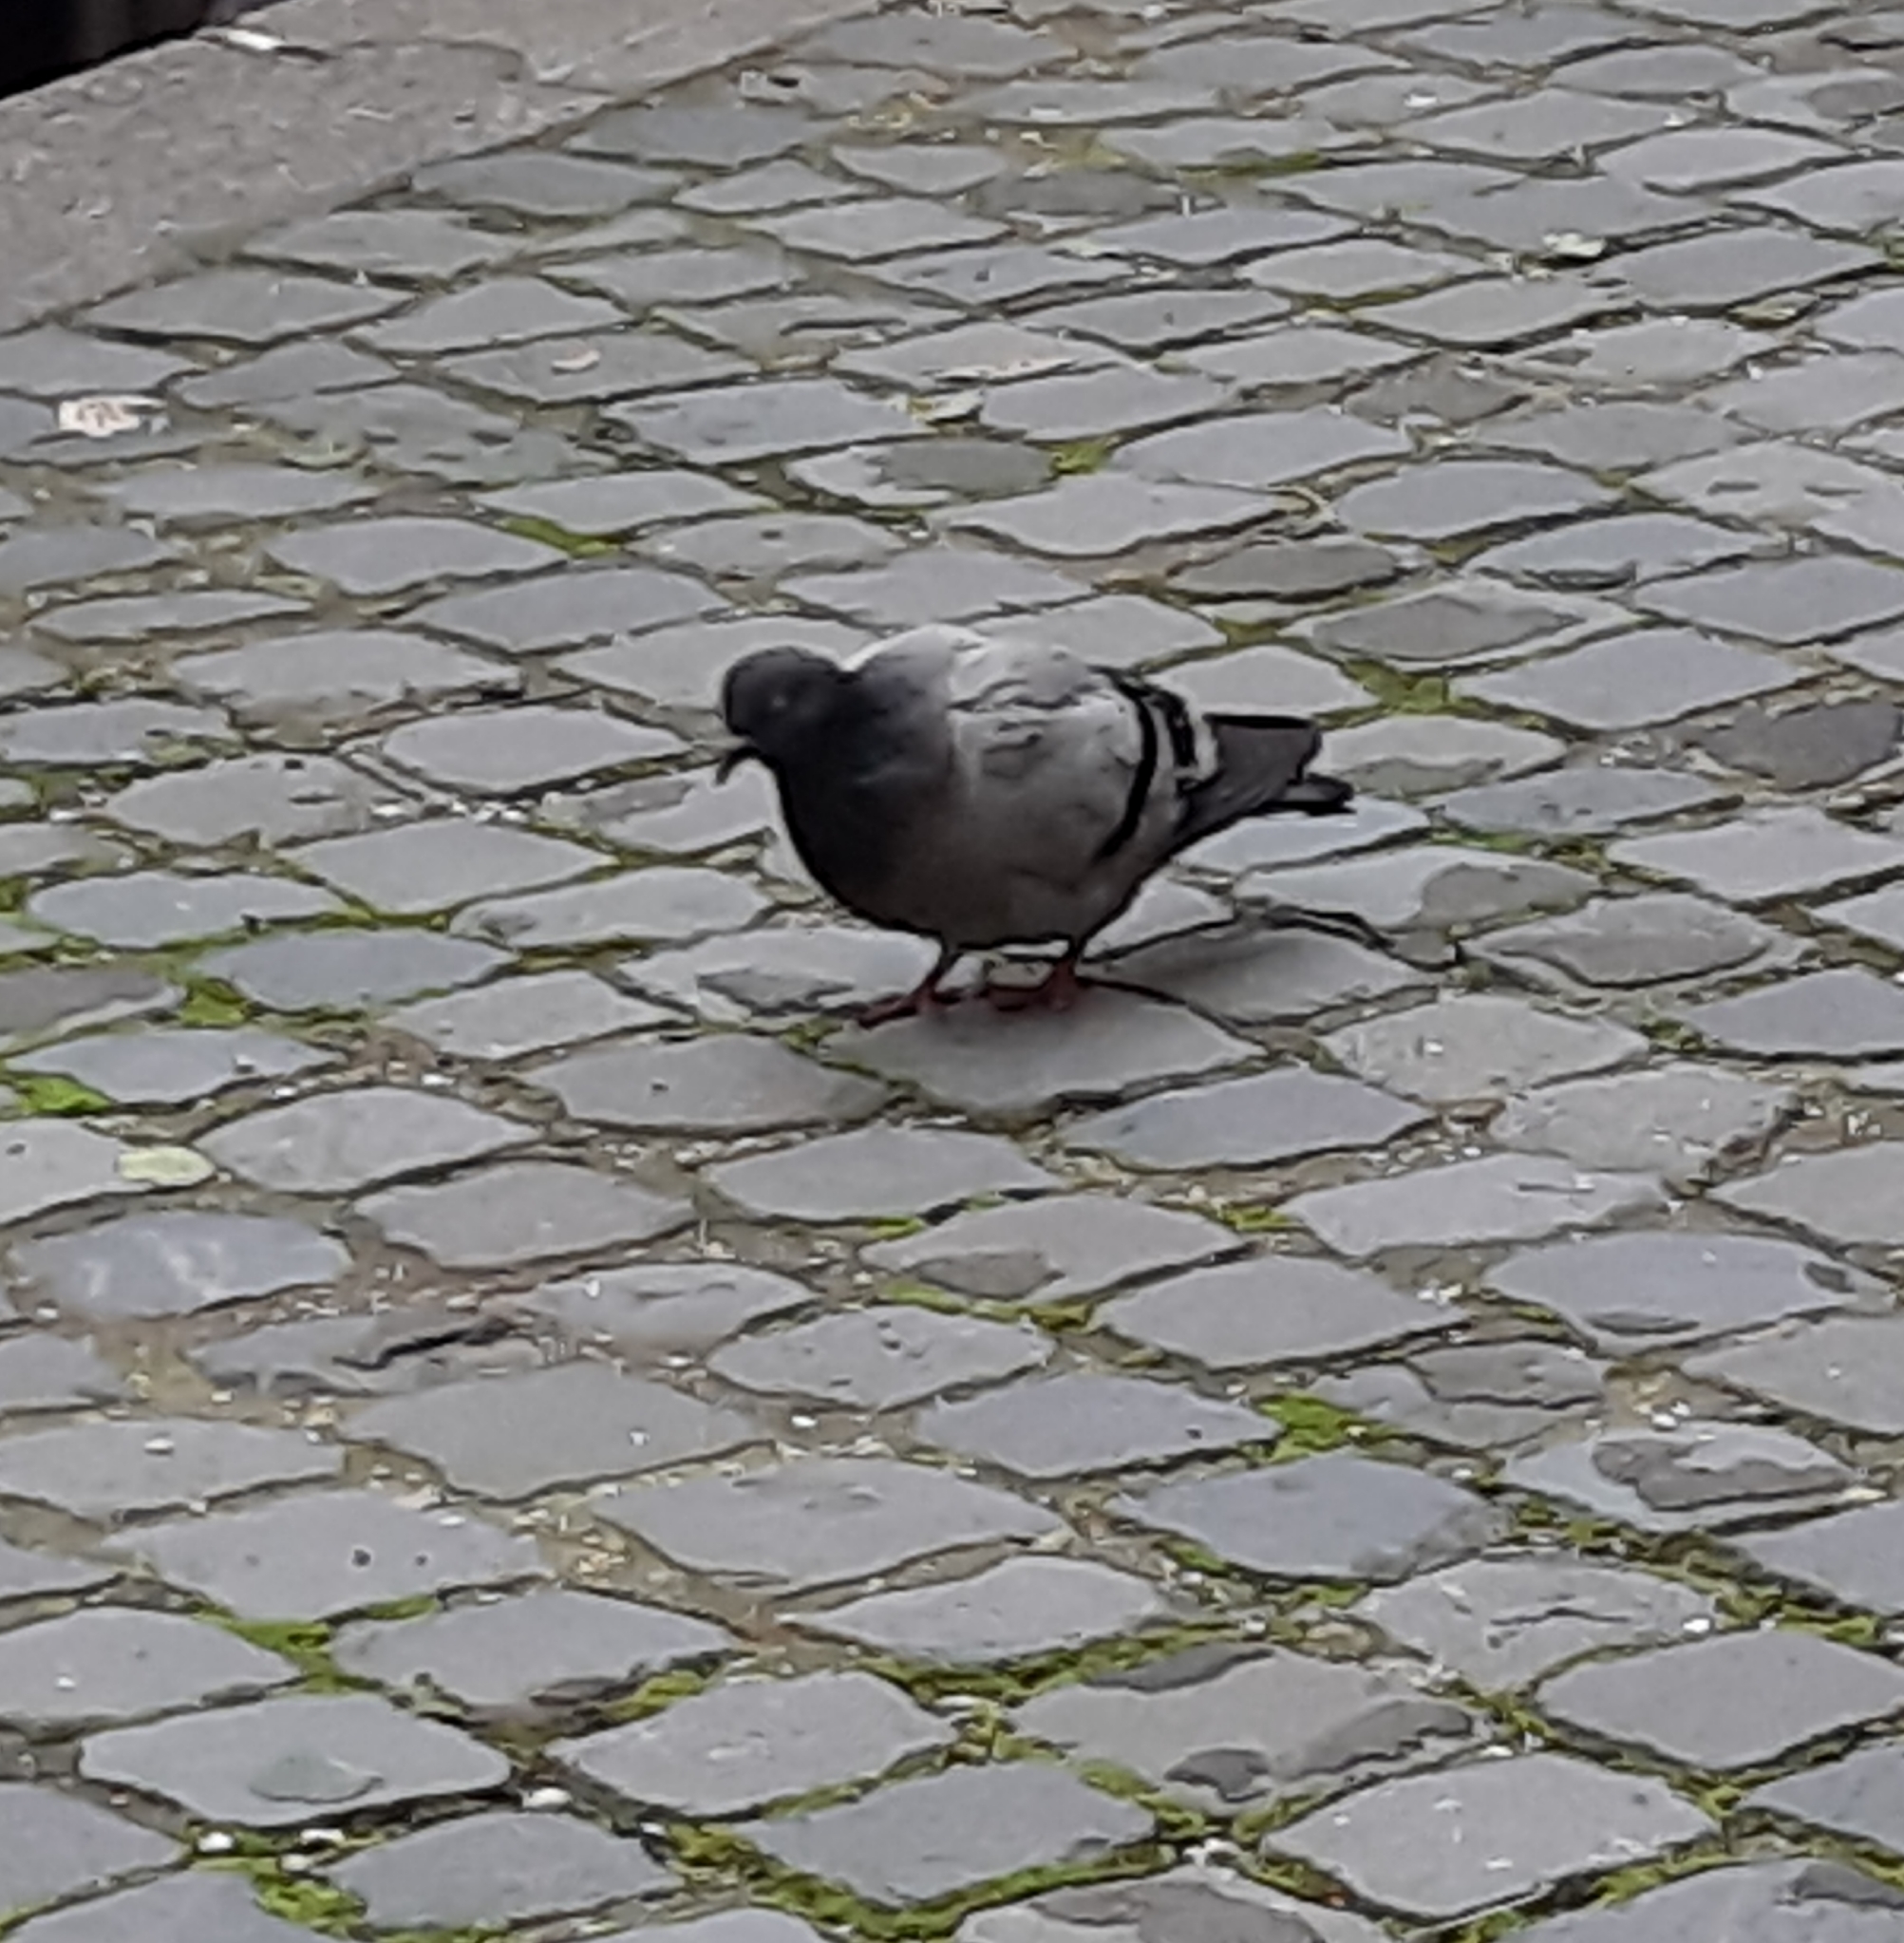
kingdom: Animalia
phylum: Chordata
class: Aves
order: Columbiformes
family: Columbidae
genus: Columba
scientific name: Columba livia
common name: Rock pigeon
